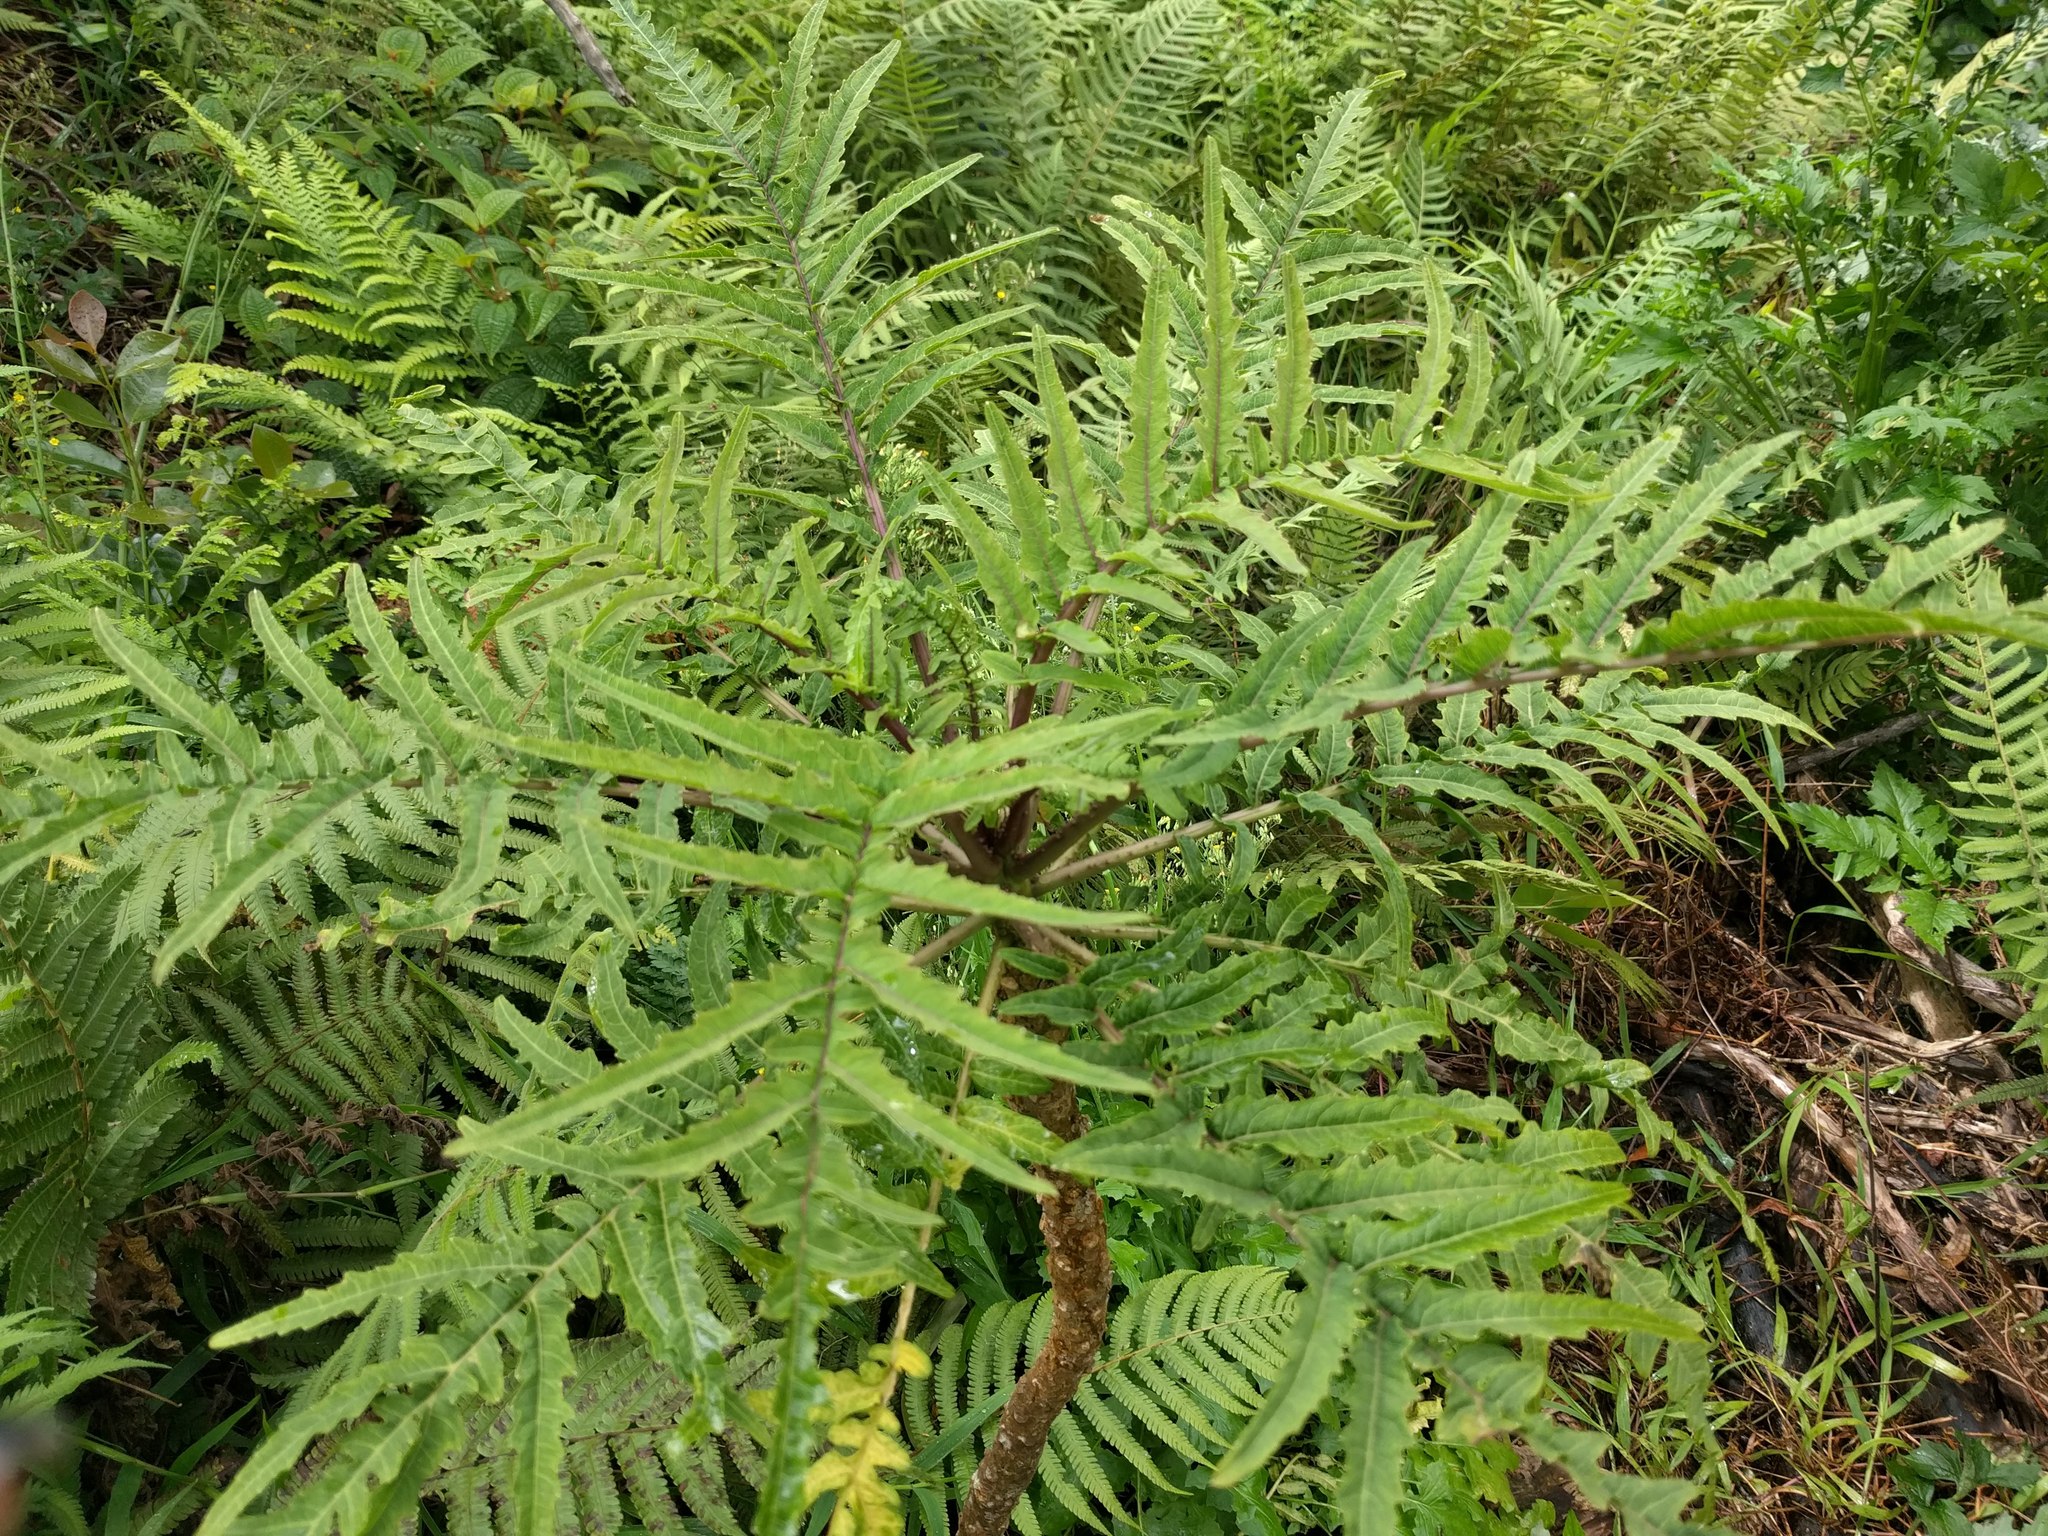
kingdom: Plantae
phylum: Tracheophyta
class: Magnoliopsida
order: Asterales
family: Campanulaceae
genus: Cyanea
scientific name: Cyanea grimesiana
